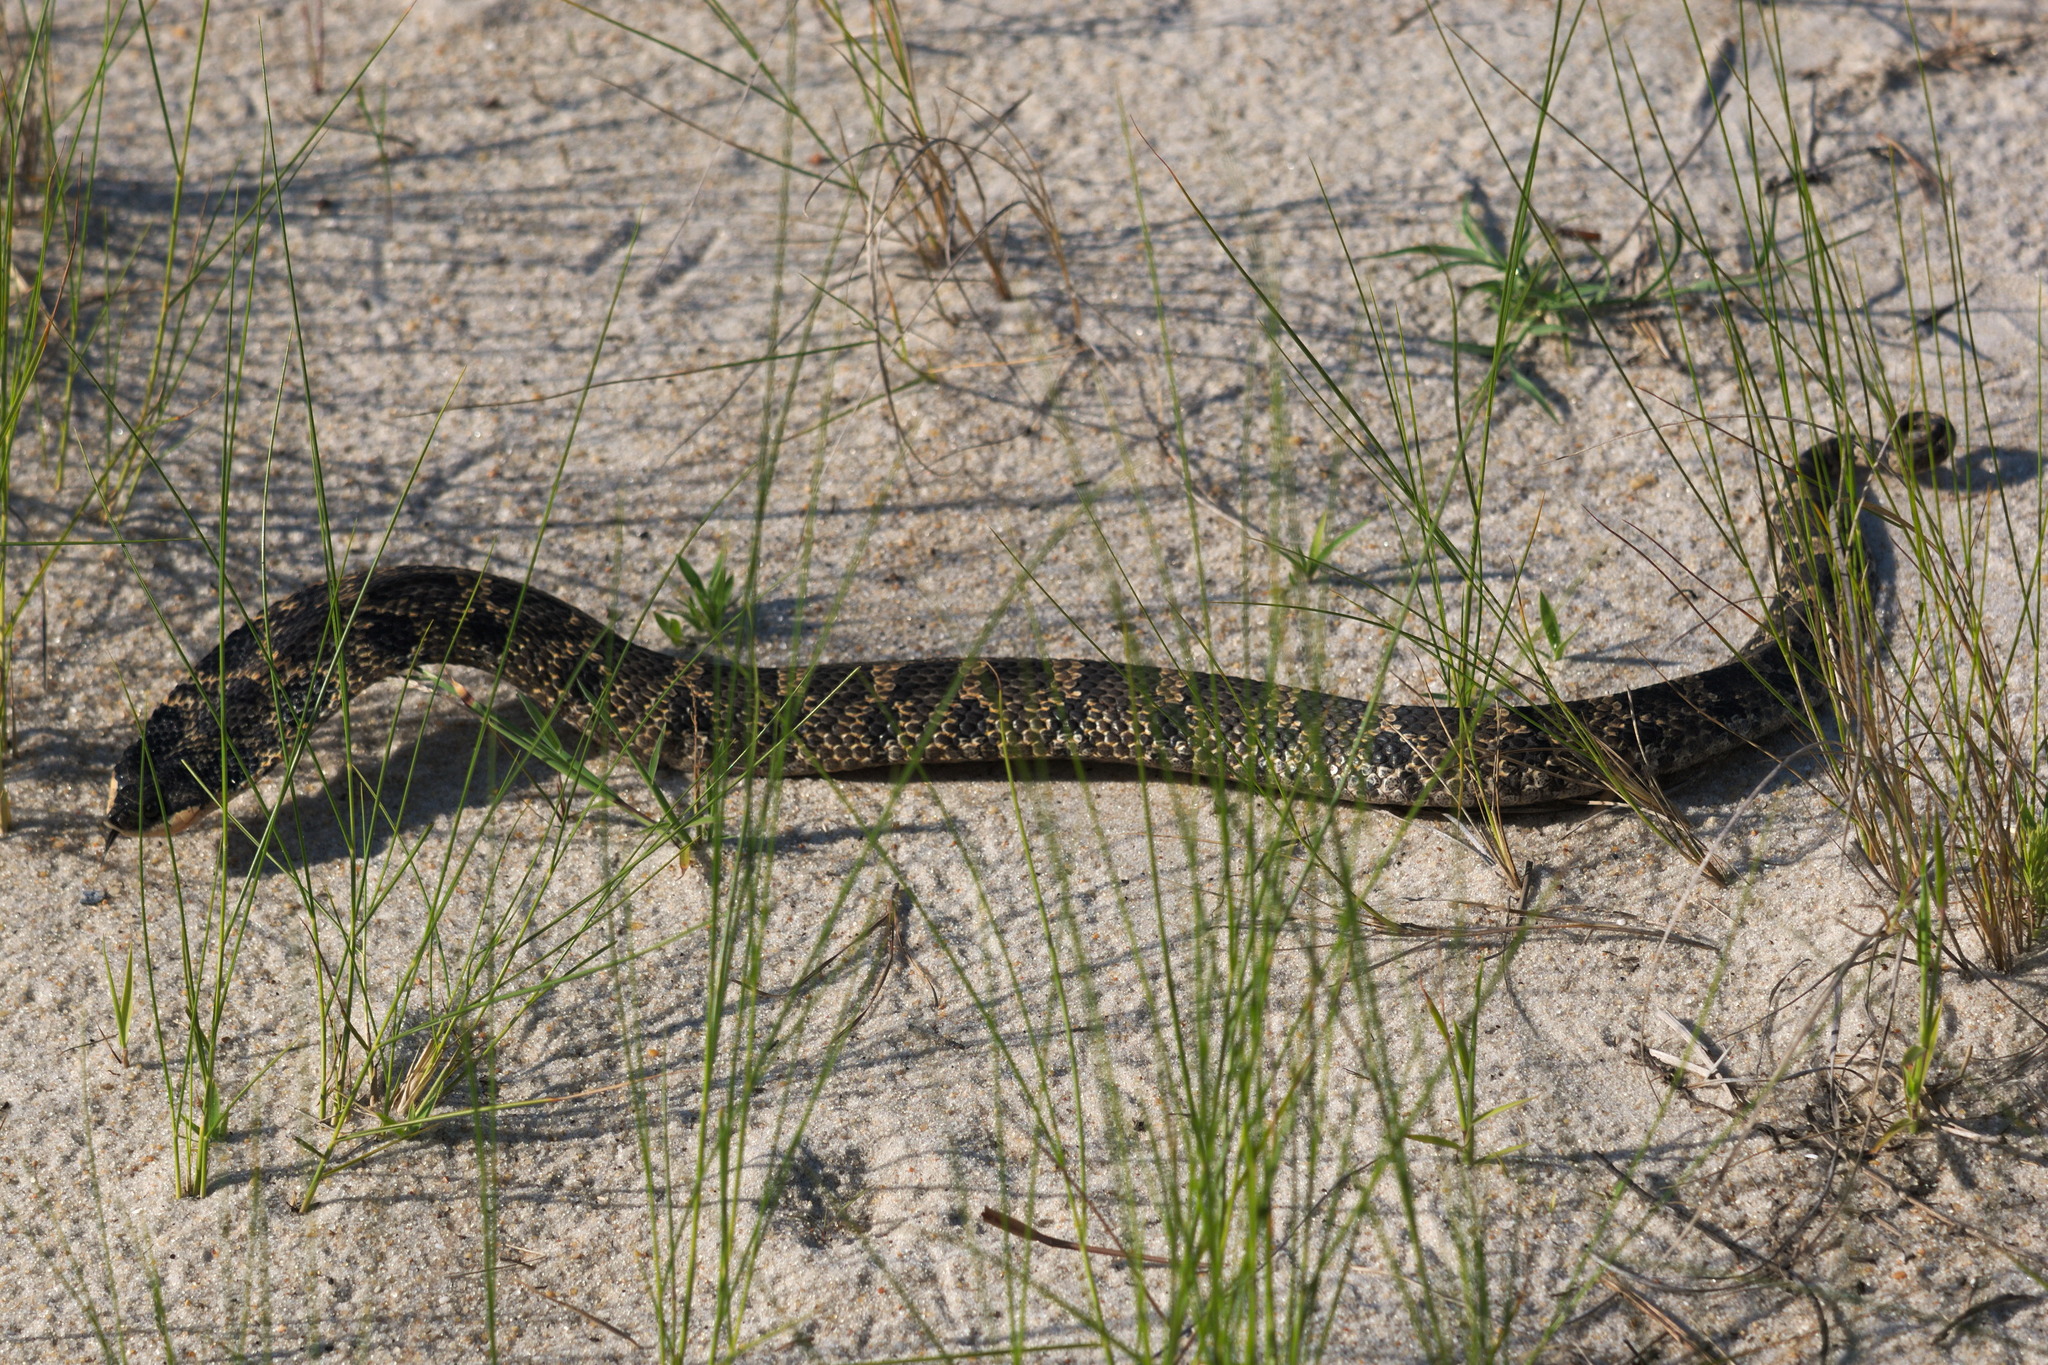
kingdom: Animalia
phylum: Chordata
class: Squamata
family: Colubridae
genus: Heterodon
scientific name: Heterodon platirhinos
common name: Eastern hognose snake
